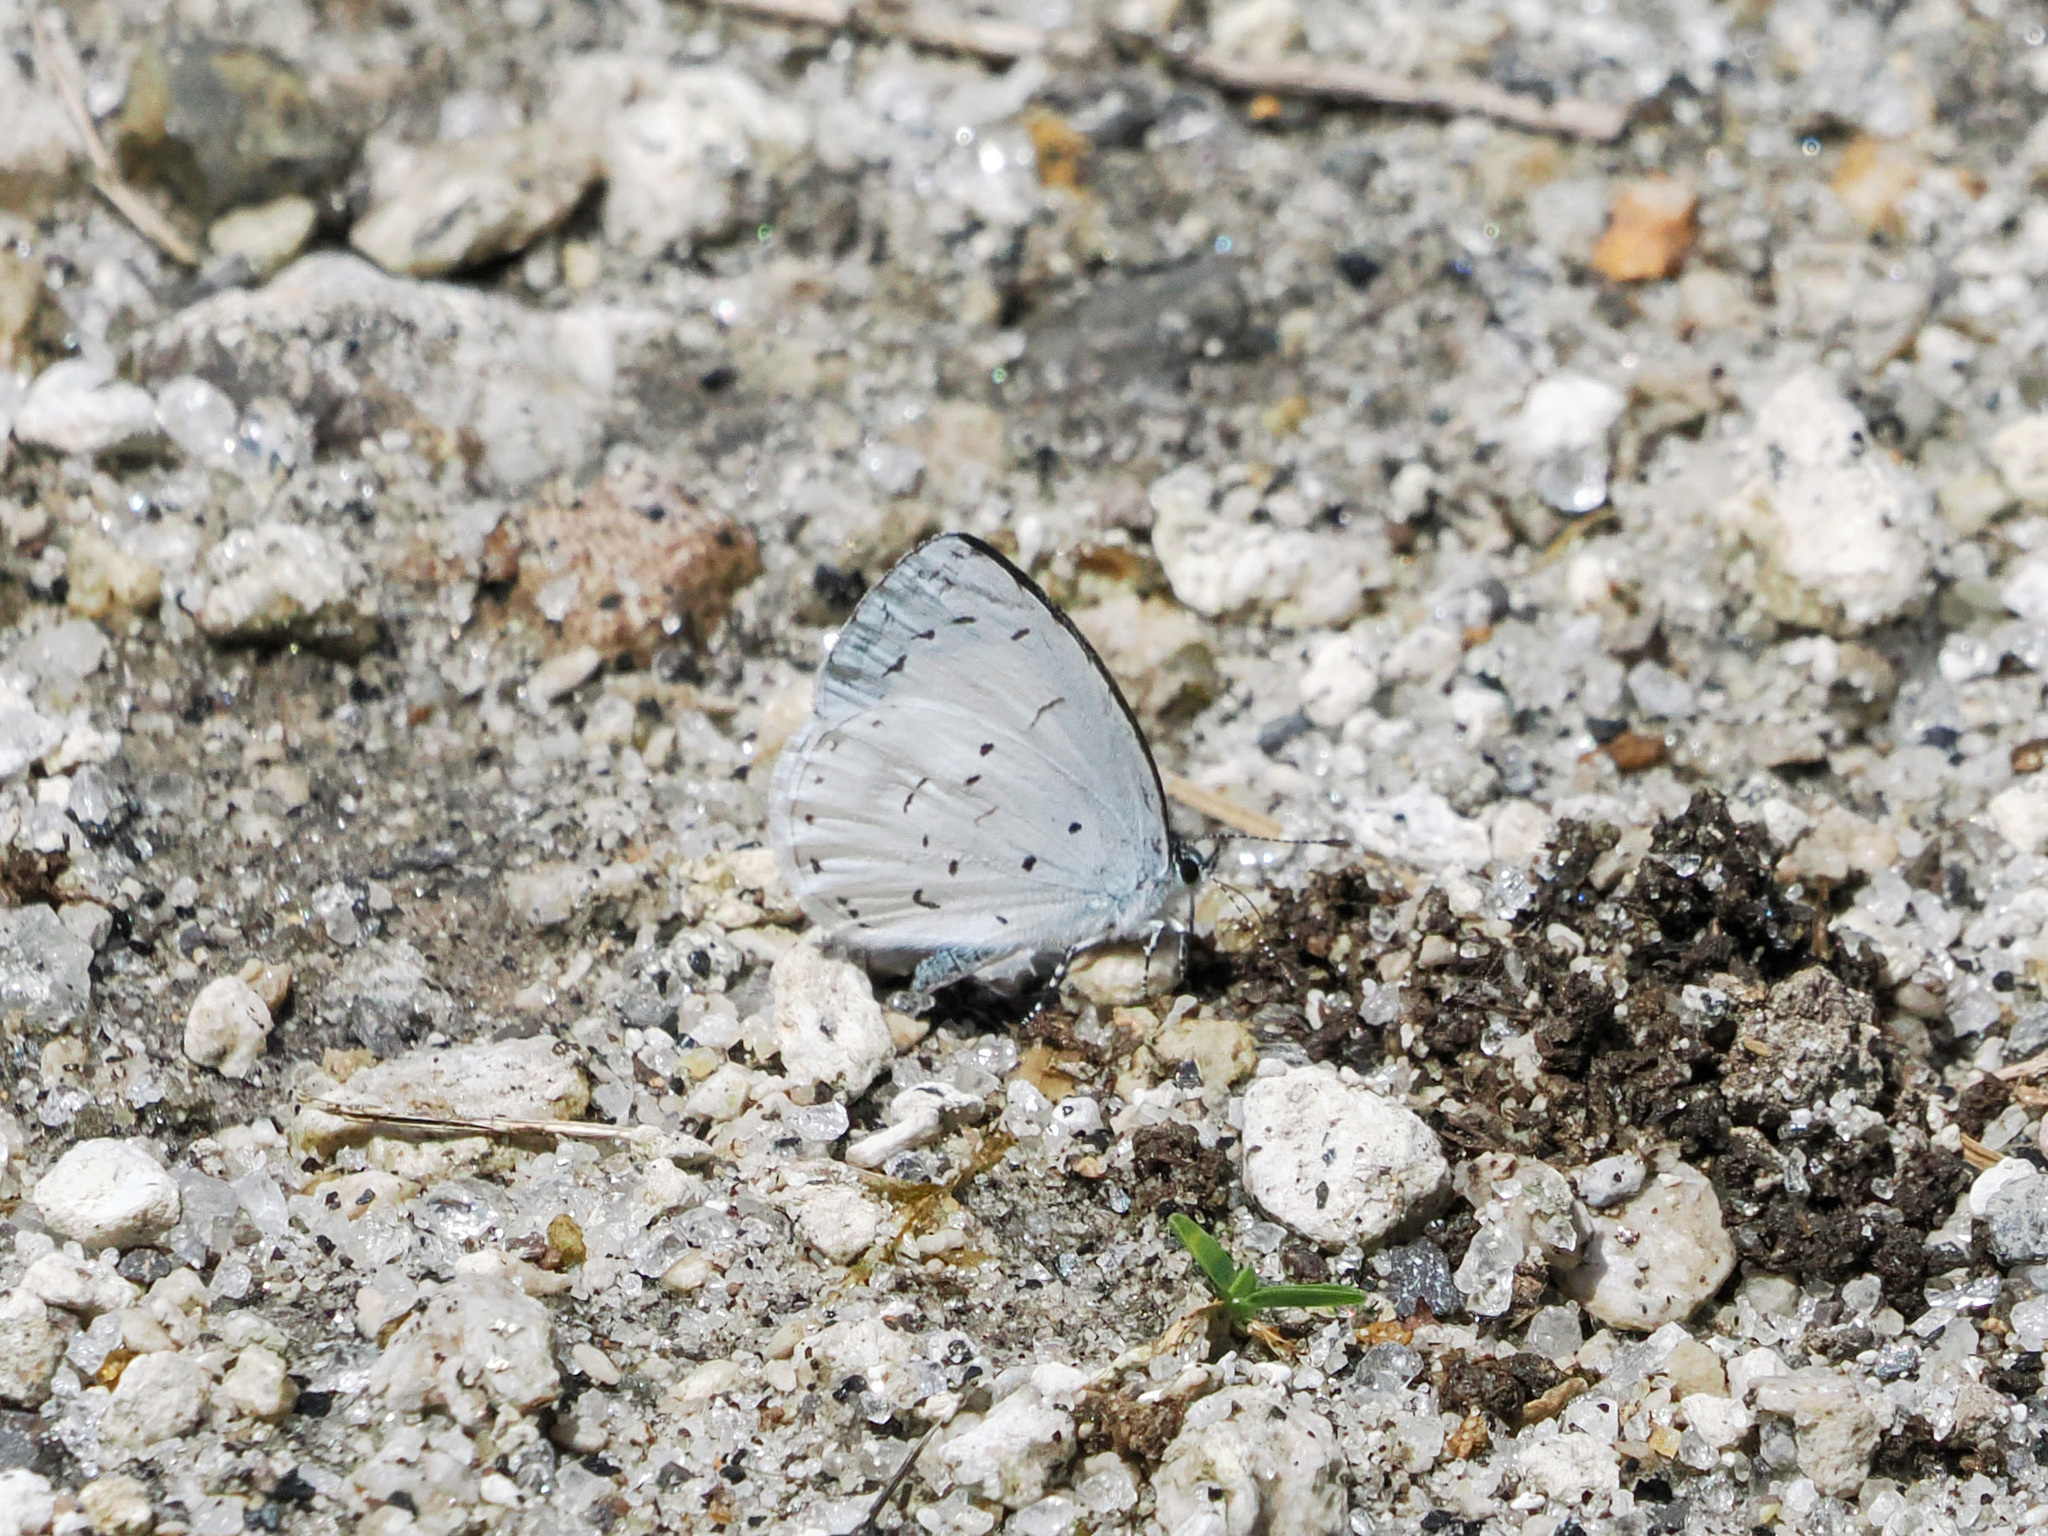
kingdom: Animalia
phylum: Arthropoda
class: Insecta
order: Lepidoptera
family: Lycaenidae
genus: Udara
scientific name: Udara akasa
